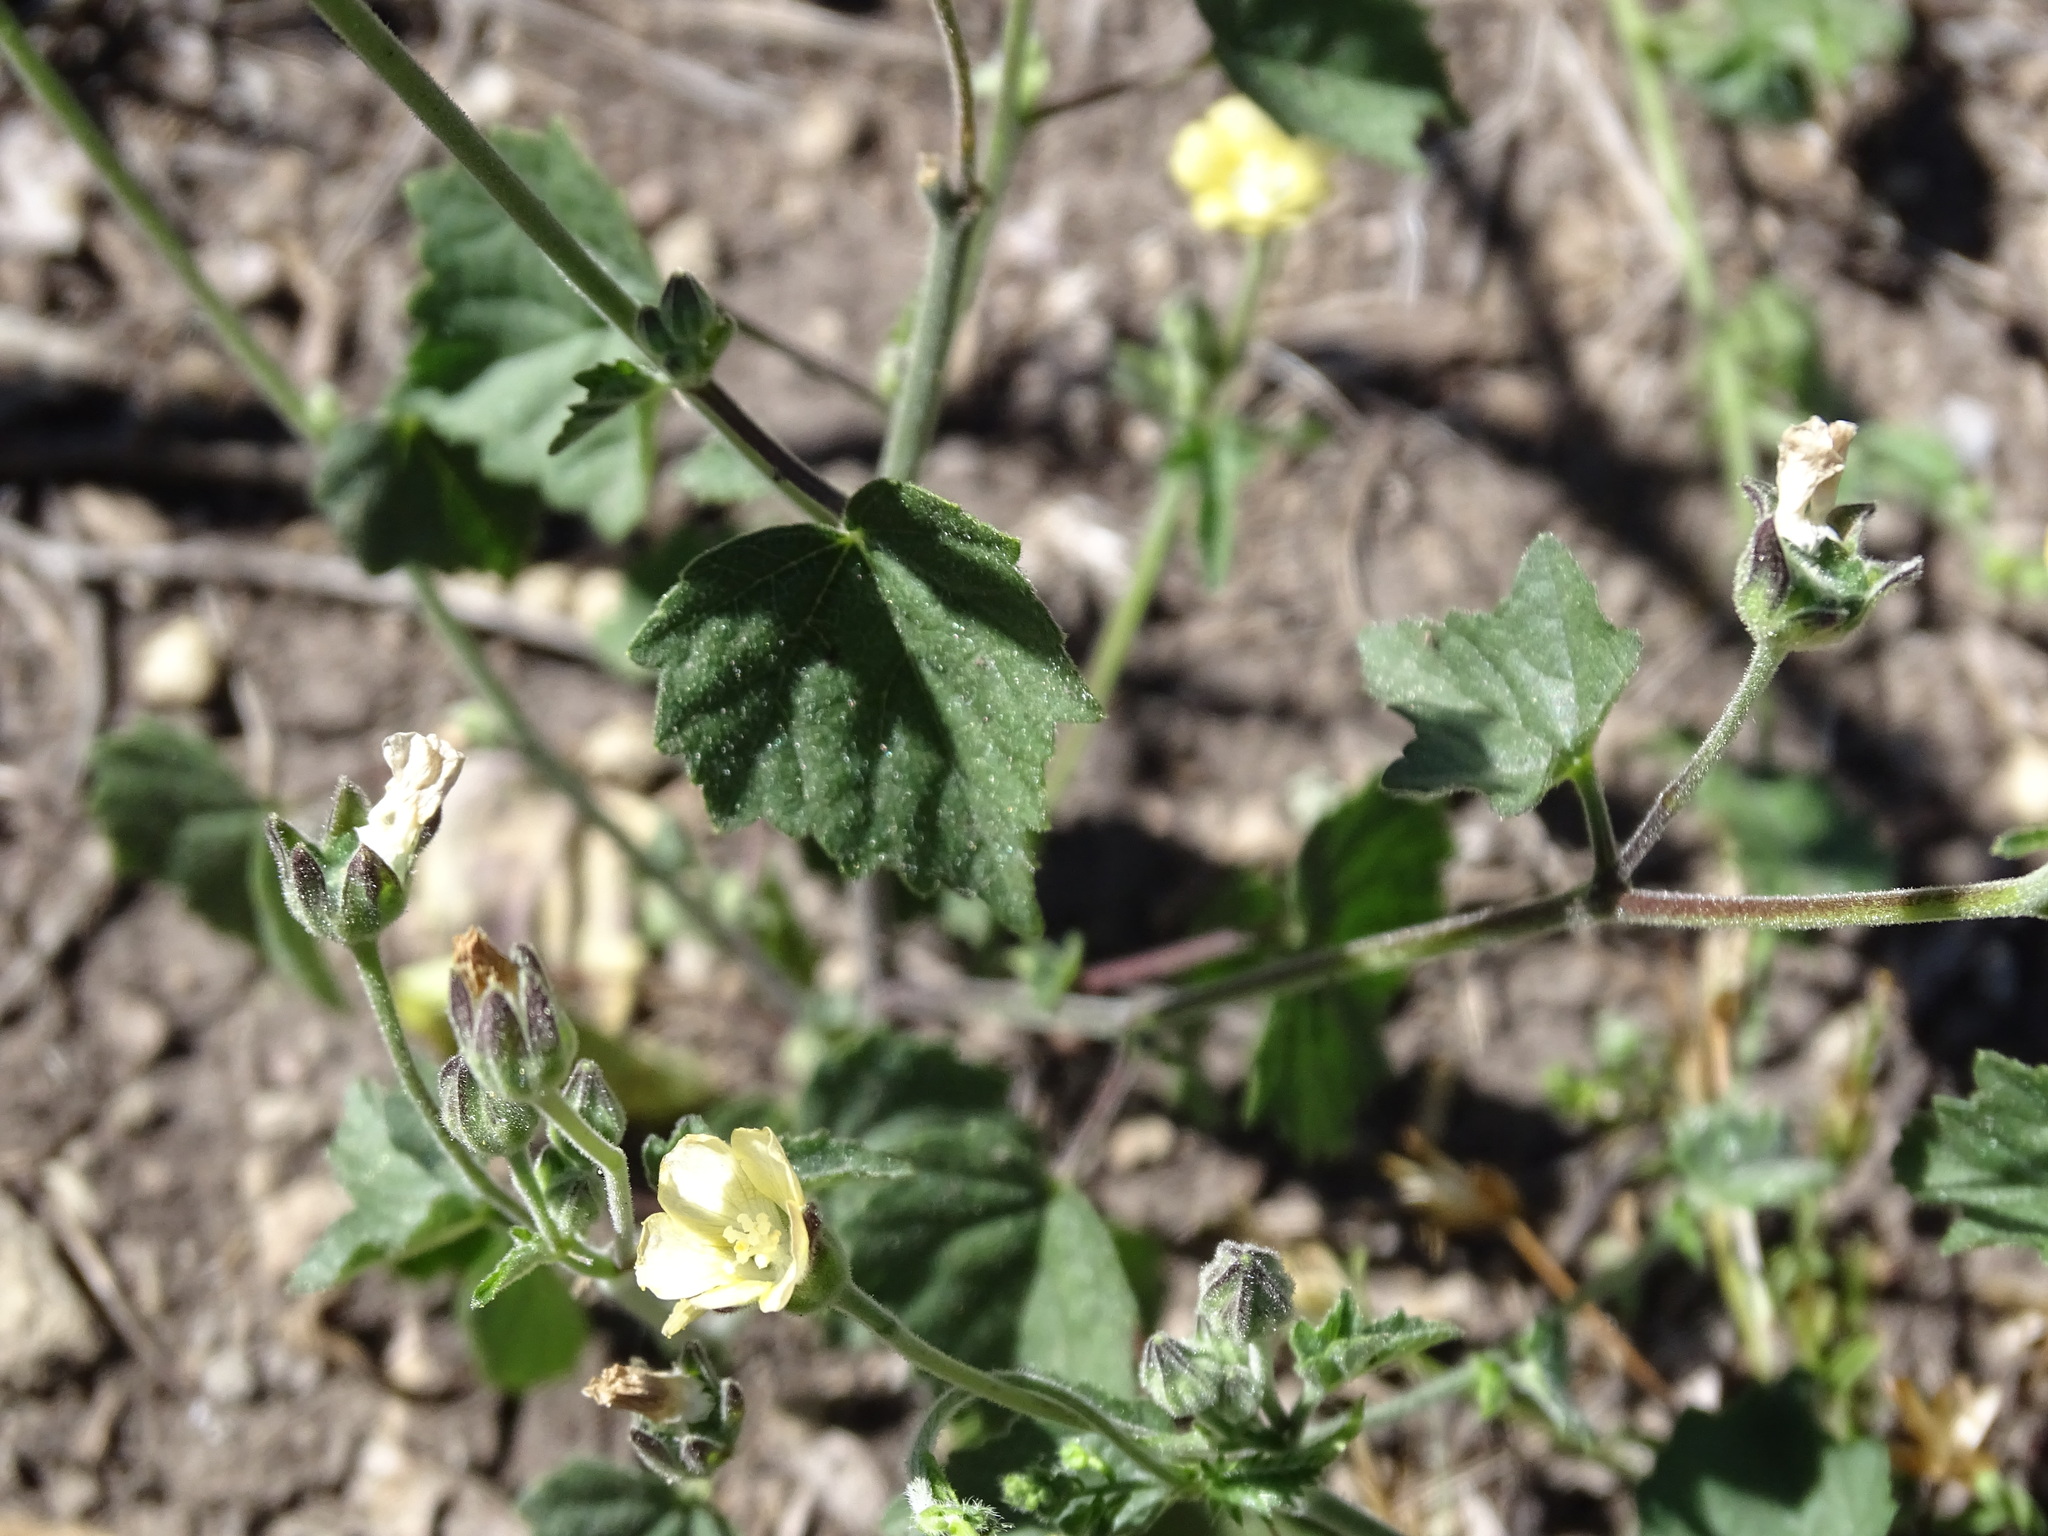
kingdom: Plantae
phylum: Tracheophyta
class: Magnoliopsida
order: Malvales
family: Malvaceae
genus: Anoda
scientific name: Anoda crenatiflora
